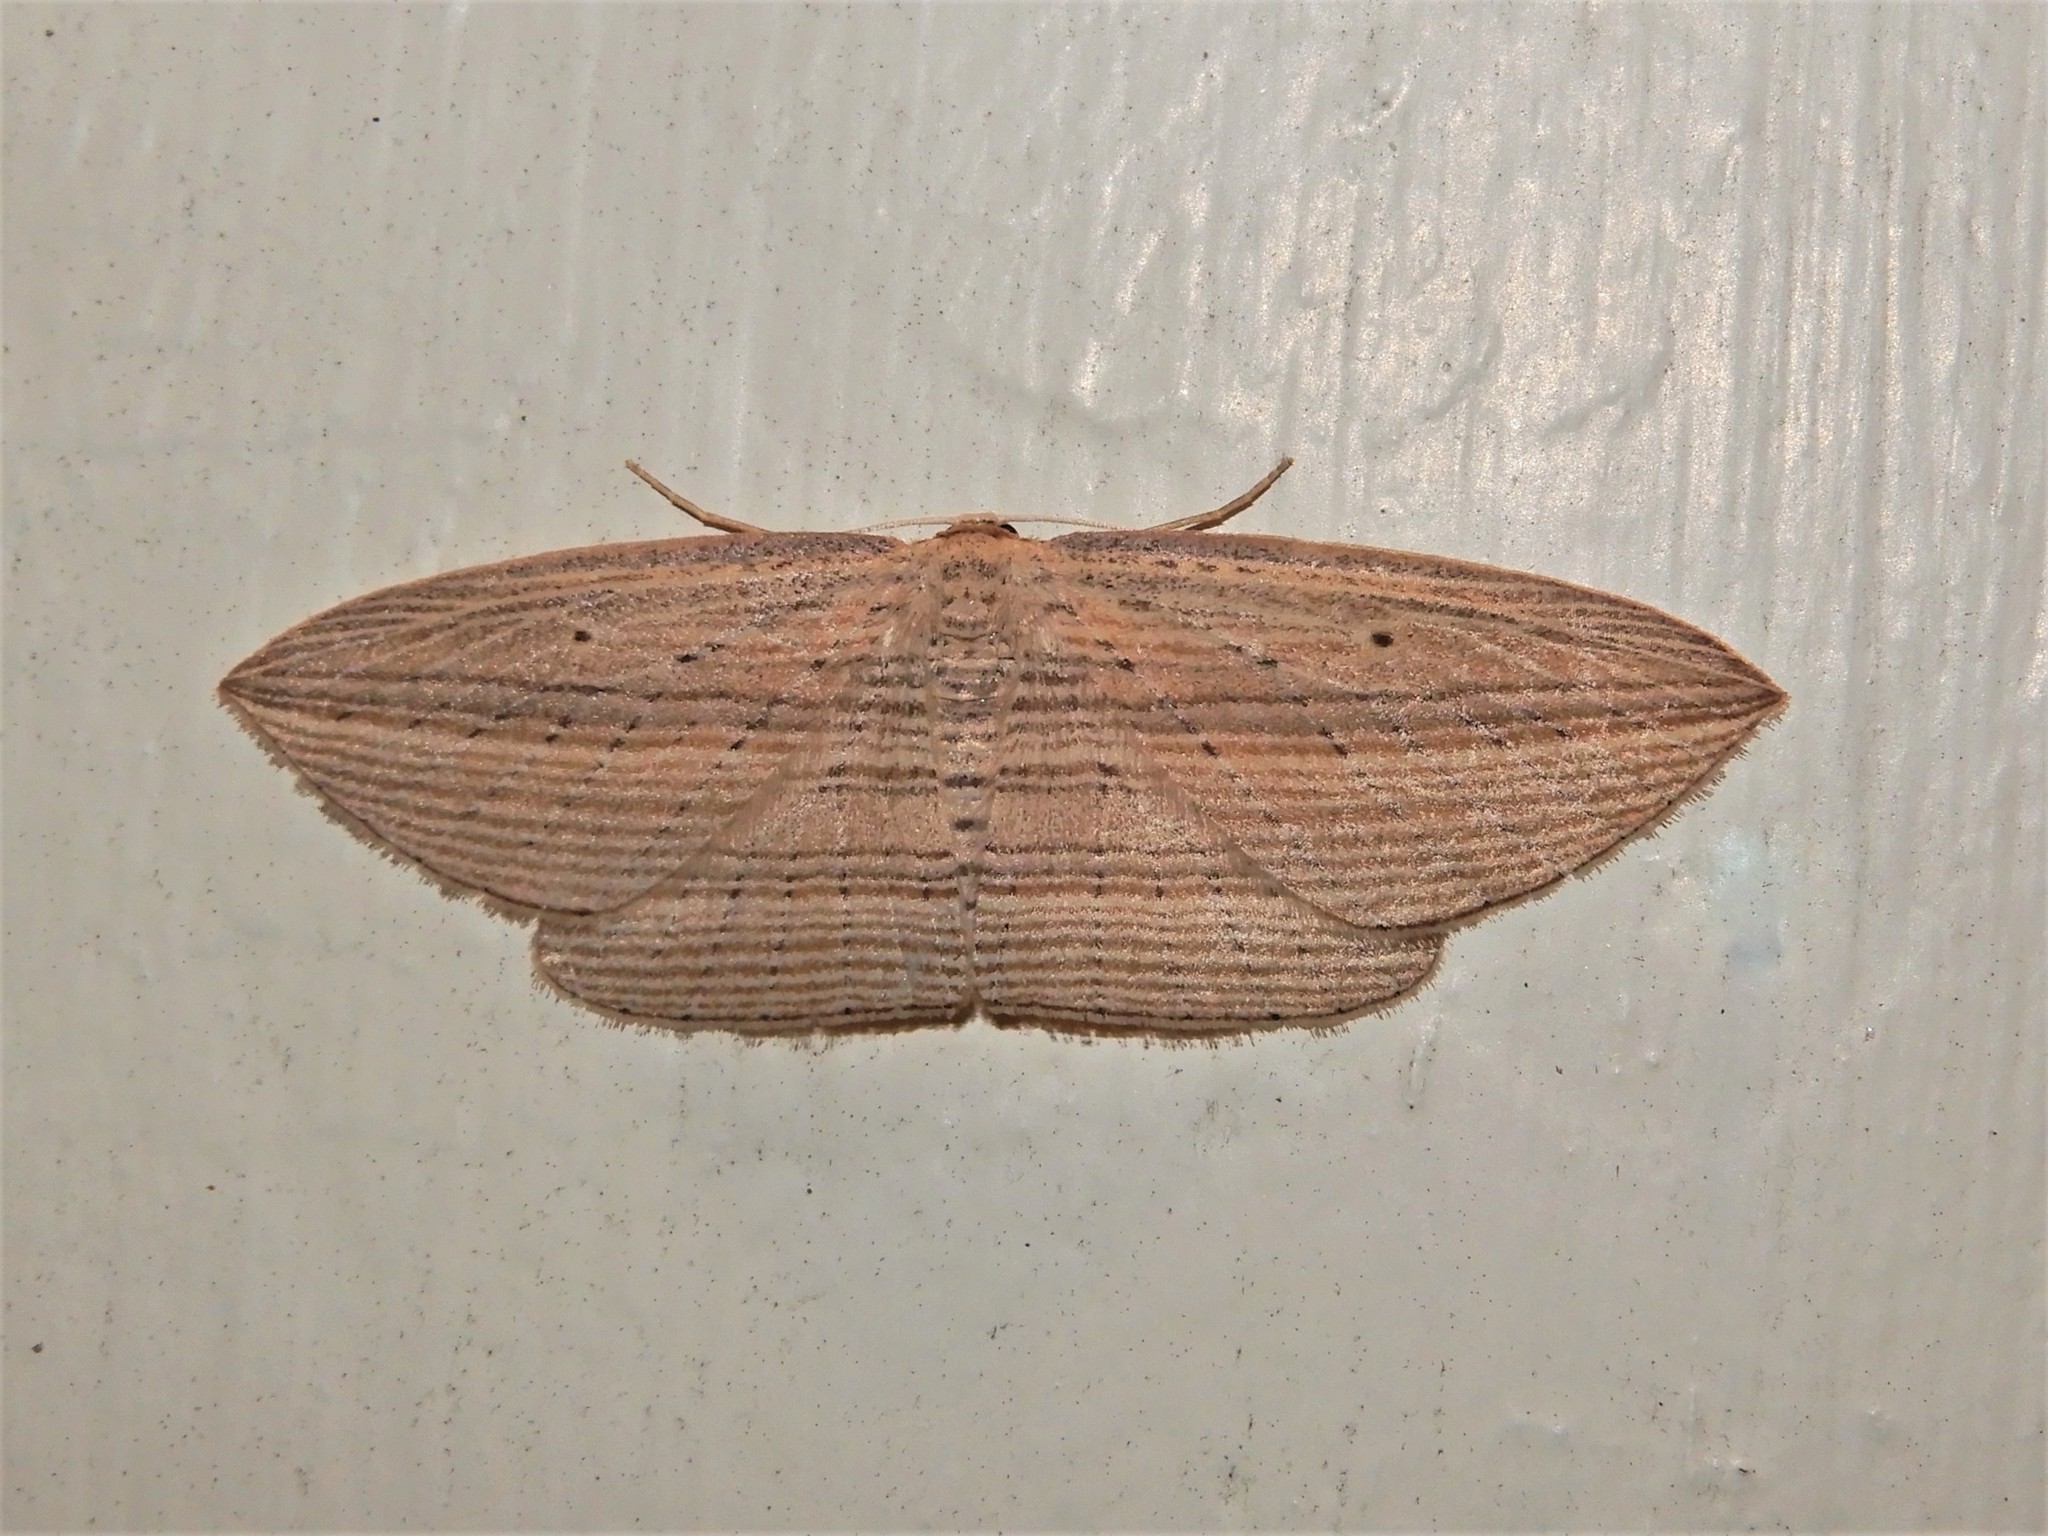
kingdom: Animalia
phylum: Arthropoda
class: Insecta
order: Lepidoptera
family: Geometridae
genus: Epiphryne
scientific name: Epiphryne verriculata
